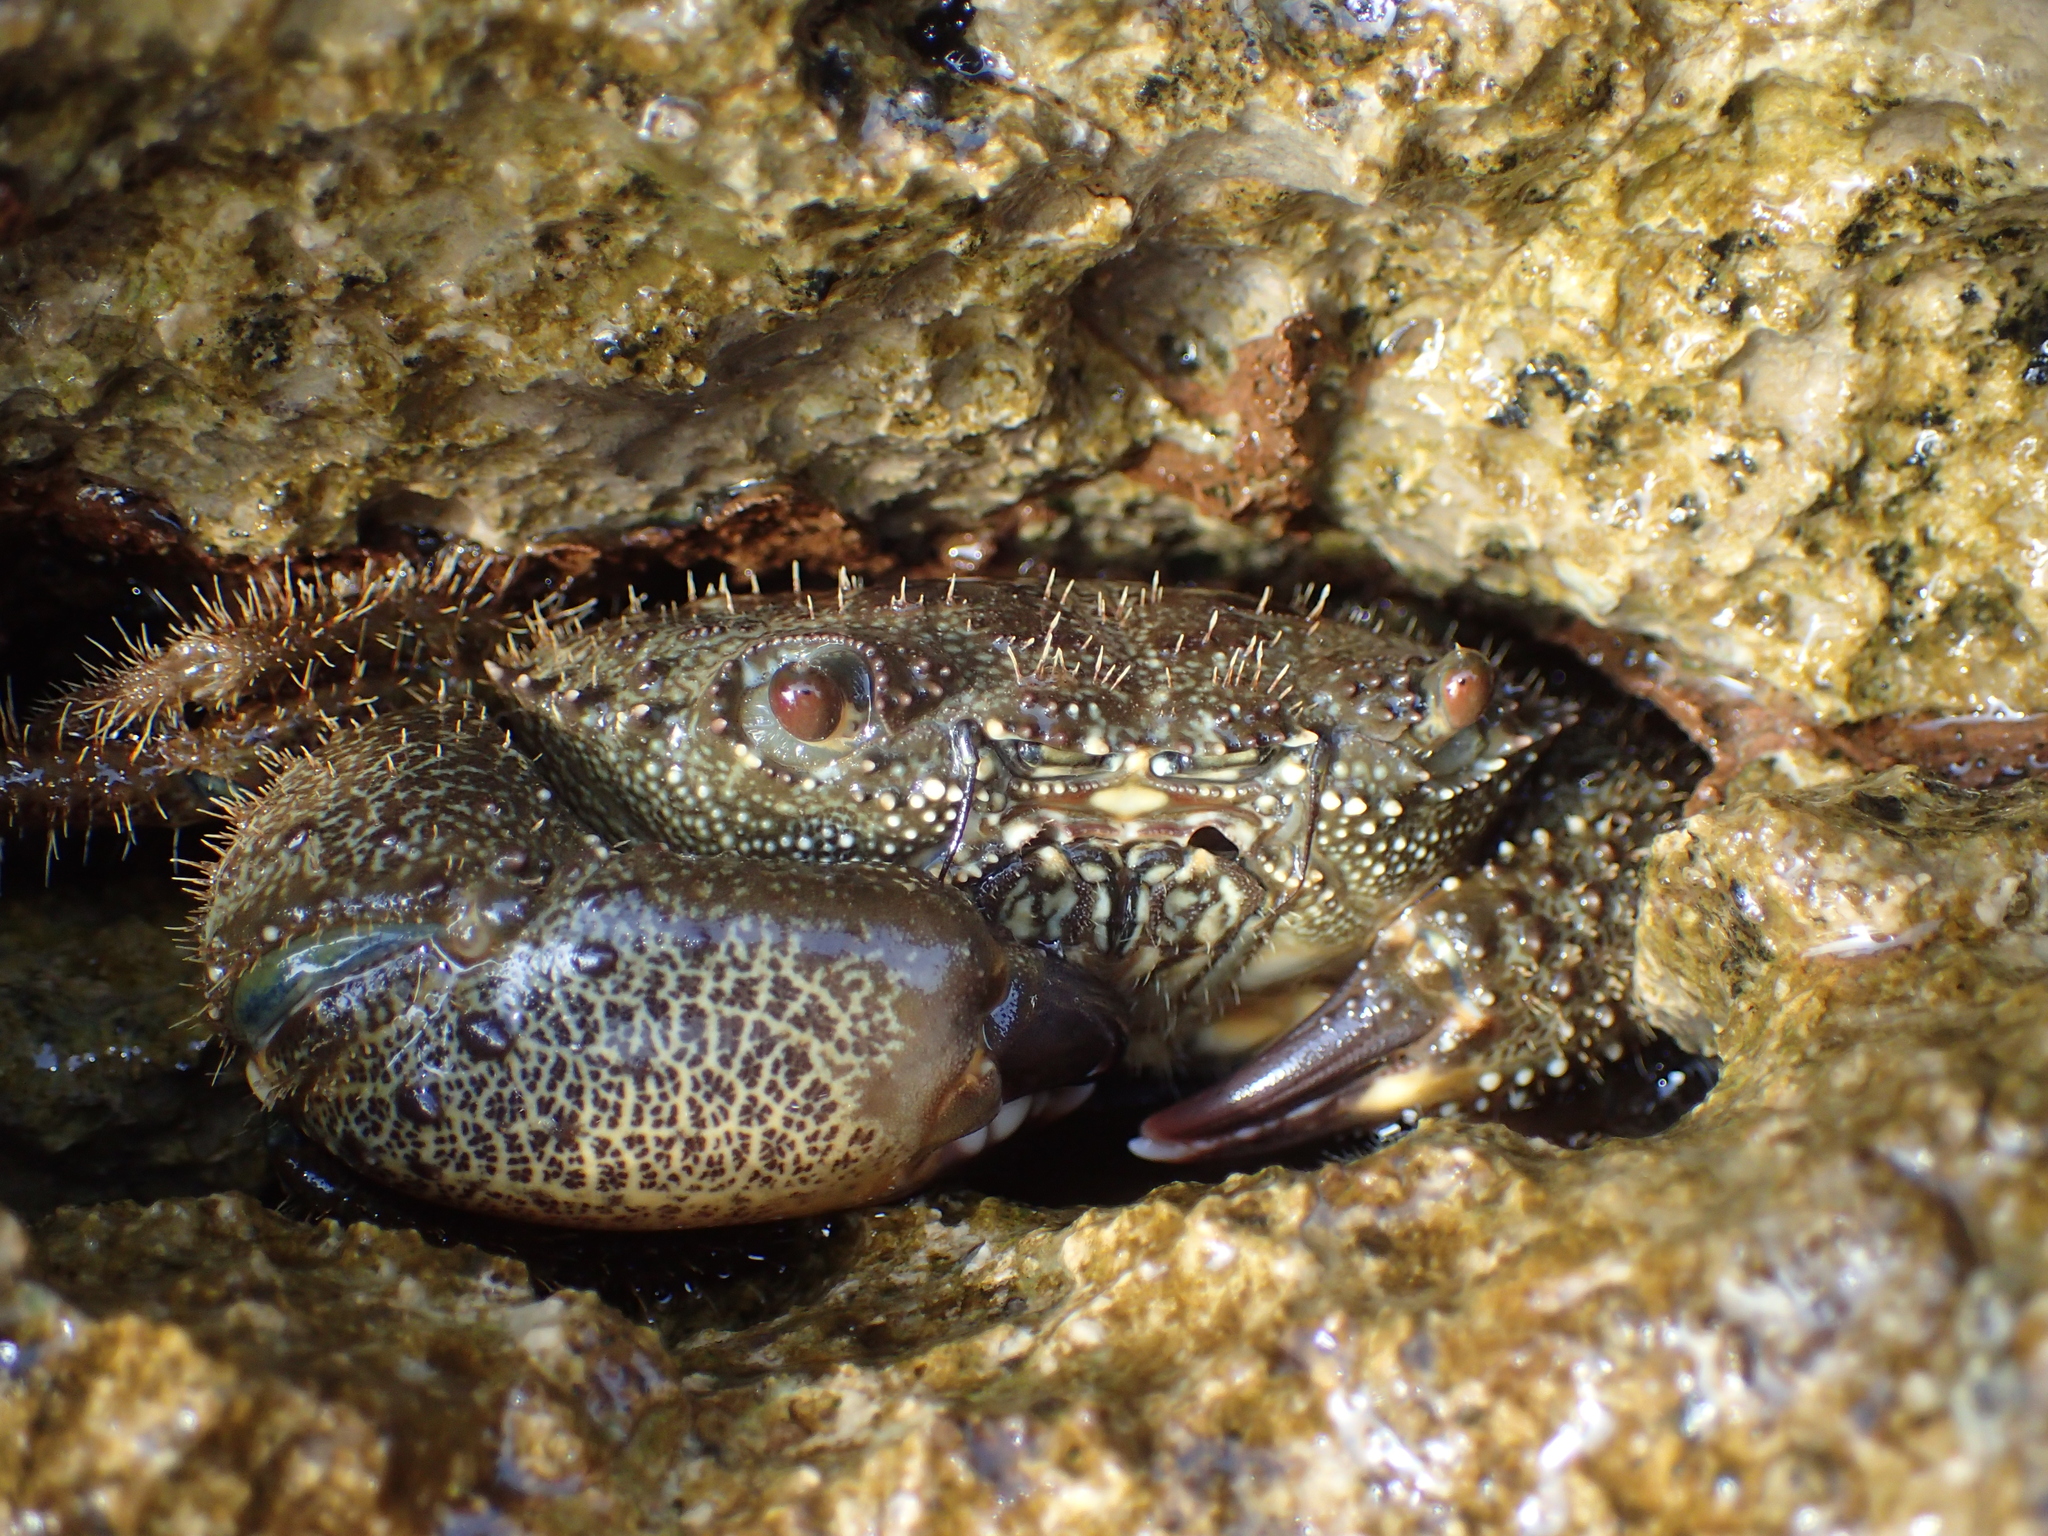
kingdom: Animalia
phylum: Arthropoda
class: Malacostraca
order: Decapoda
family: Eriphiidae
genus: Eriphia
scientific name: Eriphia verrucosa
